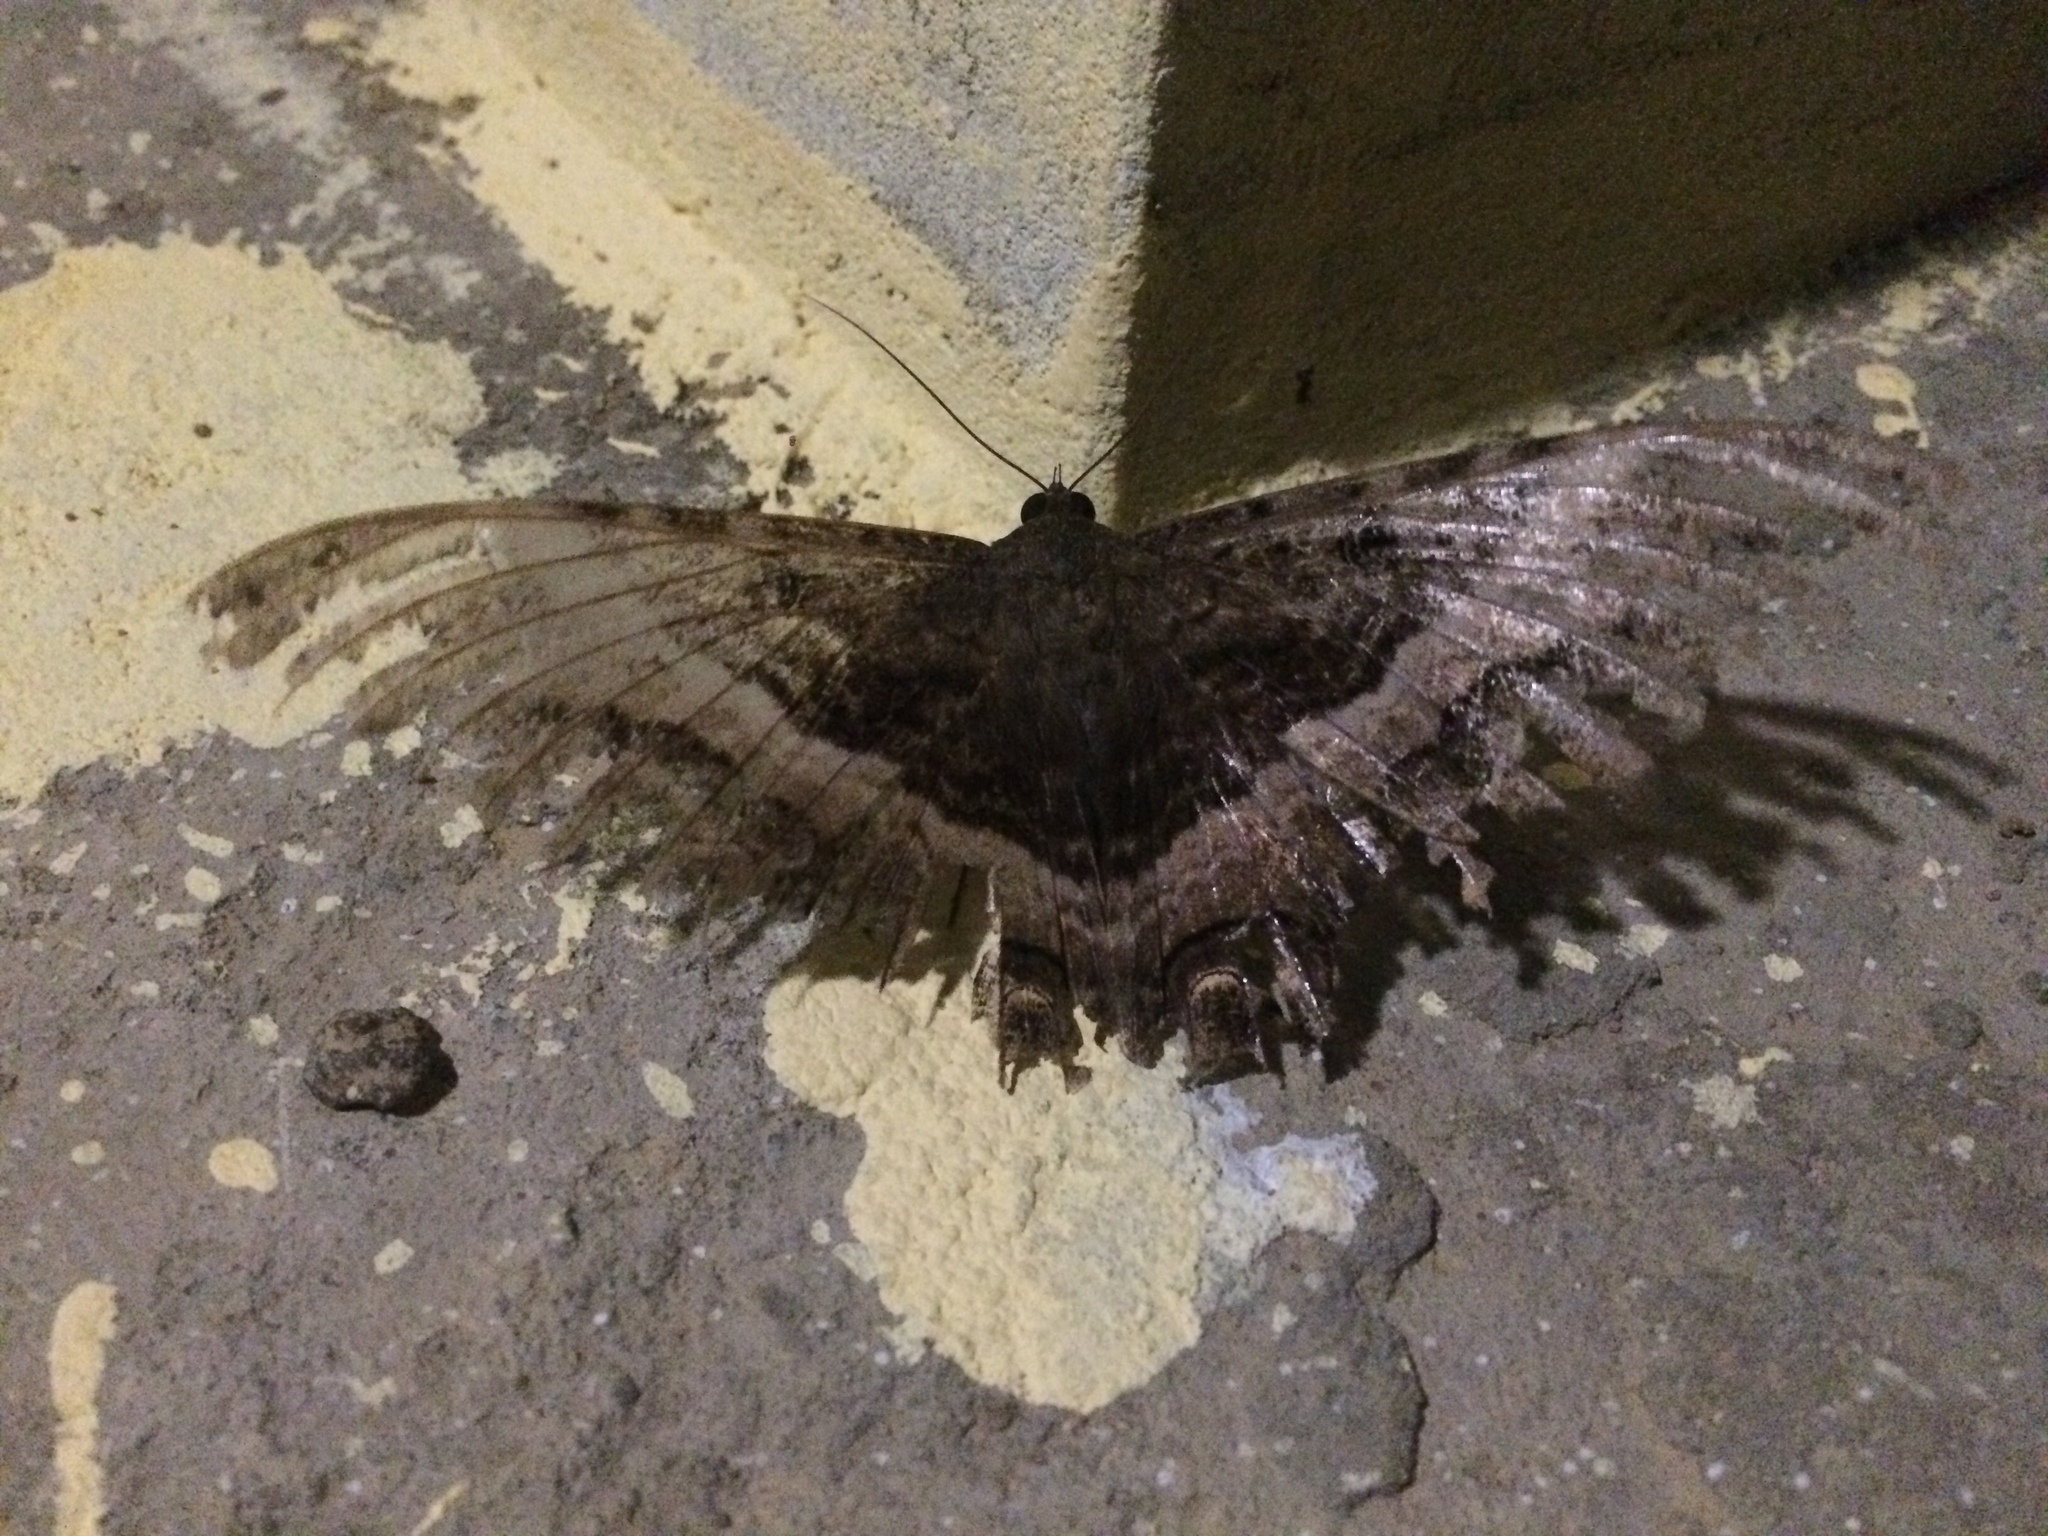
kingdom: Animalia
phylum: Arthropoda
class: Insecta
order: Lepidoptera
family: Erebidae
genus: Ascalapha
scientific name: Ascalapha odorata
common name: Black witch
